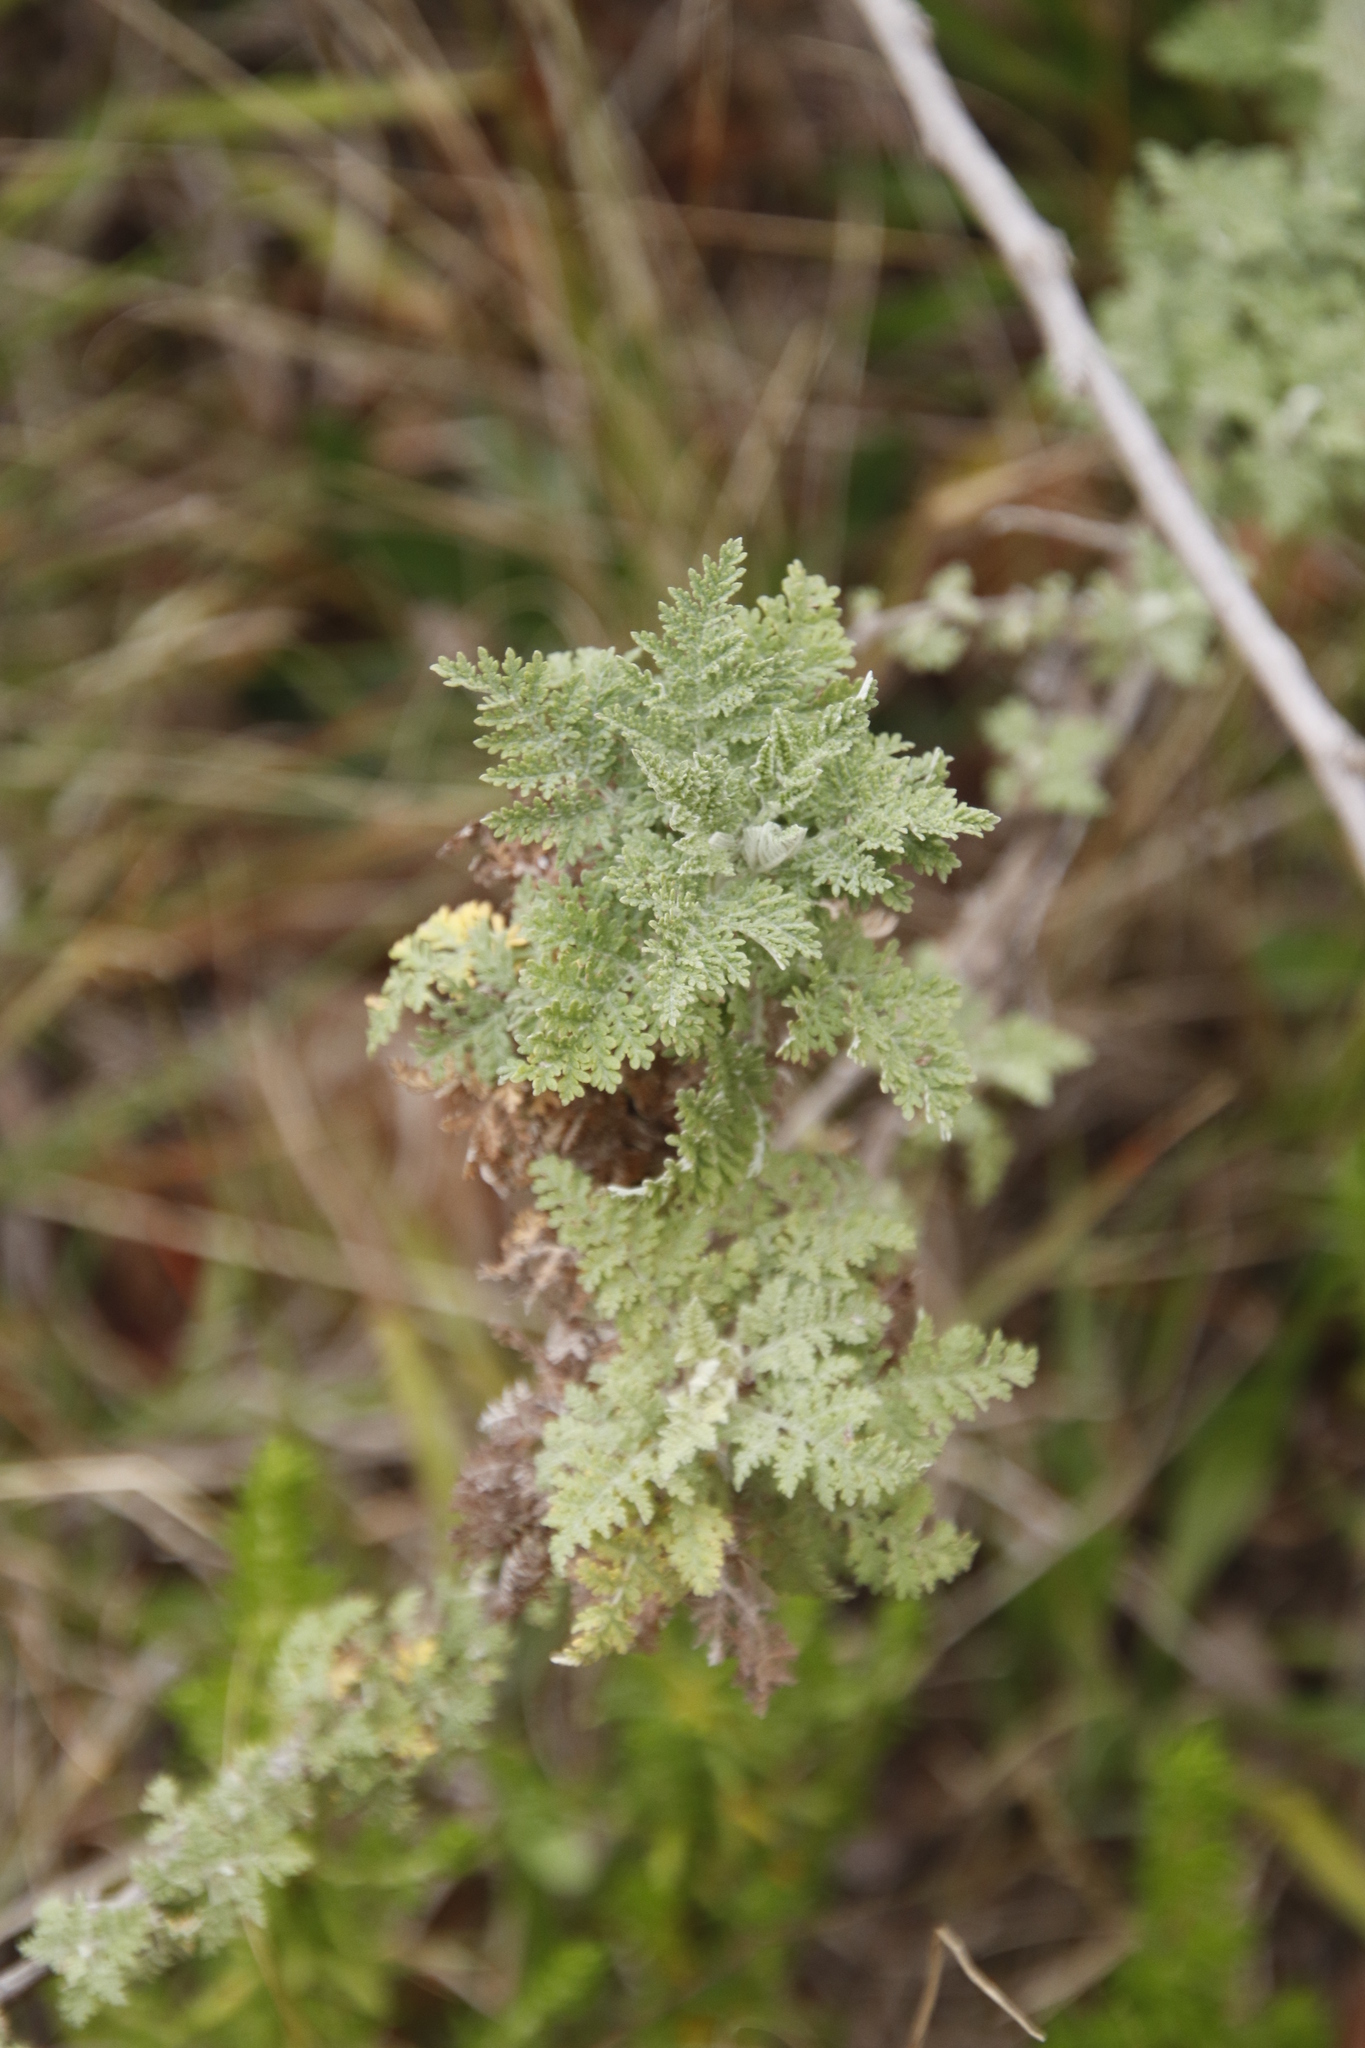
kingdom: Plantae
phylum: Tracheophyta
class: Magnoliopsida
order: Asterales
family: Asteraceae
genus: Artemisia
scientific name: Artemisia afra
